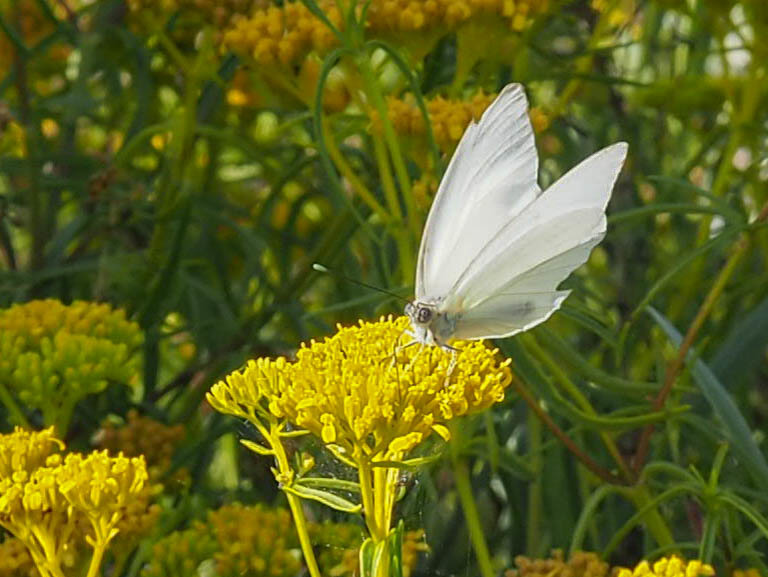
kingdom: Animalia
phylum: Arthropoda
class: Insecta
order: Lepidoptera
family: Pieridae
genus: Ascia
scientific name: Ascia monuste
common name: Great southern white
